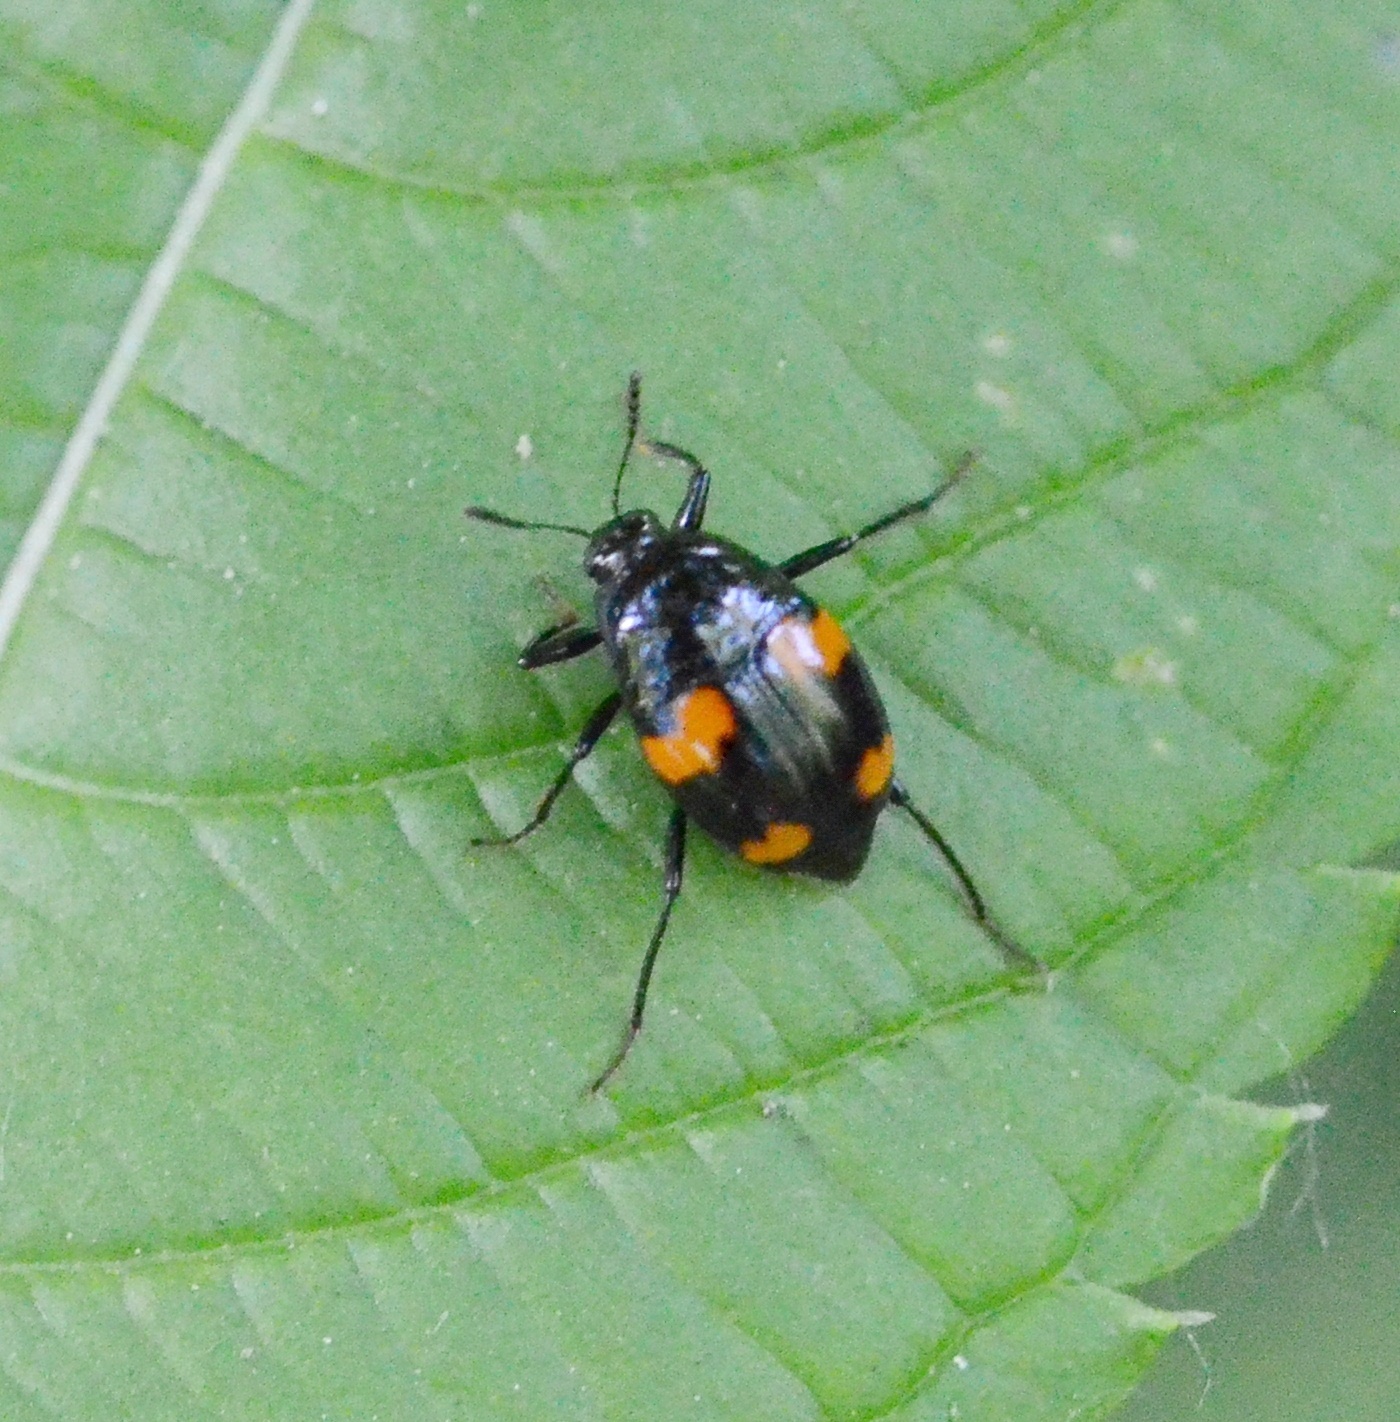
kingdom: Animalia
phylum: Arthropoda
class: Insecta
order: Coleoptera
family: Staphylinidae
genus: Scaphidium
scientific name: Scaphidium quadrimaculatum
